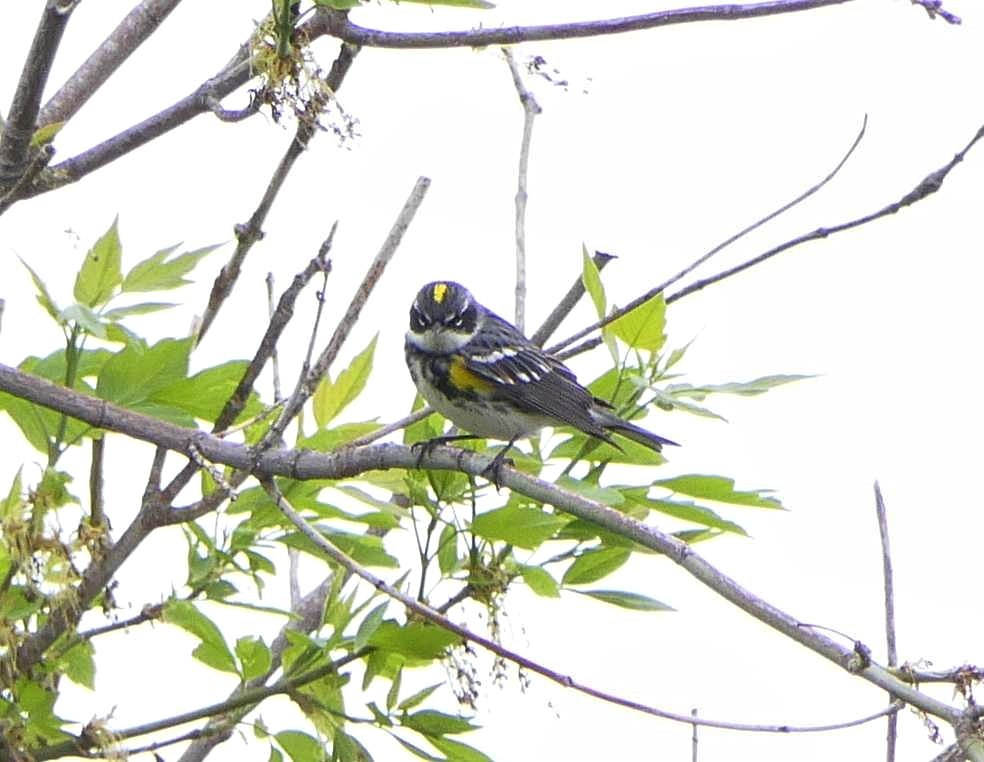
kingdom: Animalia
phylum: Chordata
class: Aves
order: Passeriformes
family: Parulidae
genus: Setophaga
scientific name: Setophaga coronata
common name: Myrtle warbler
